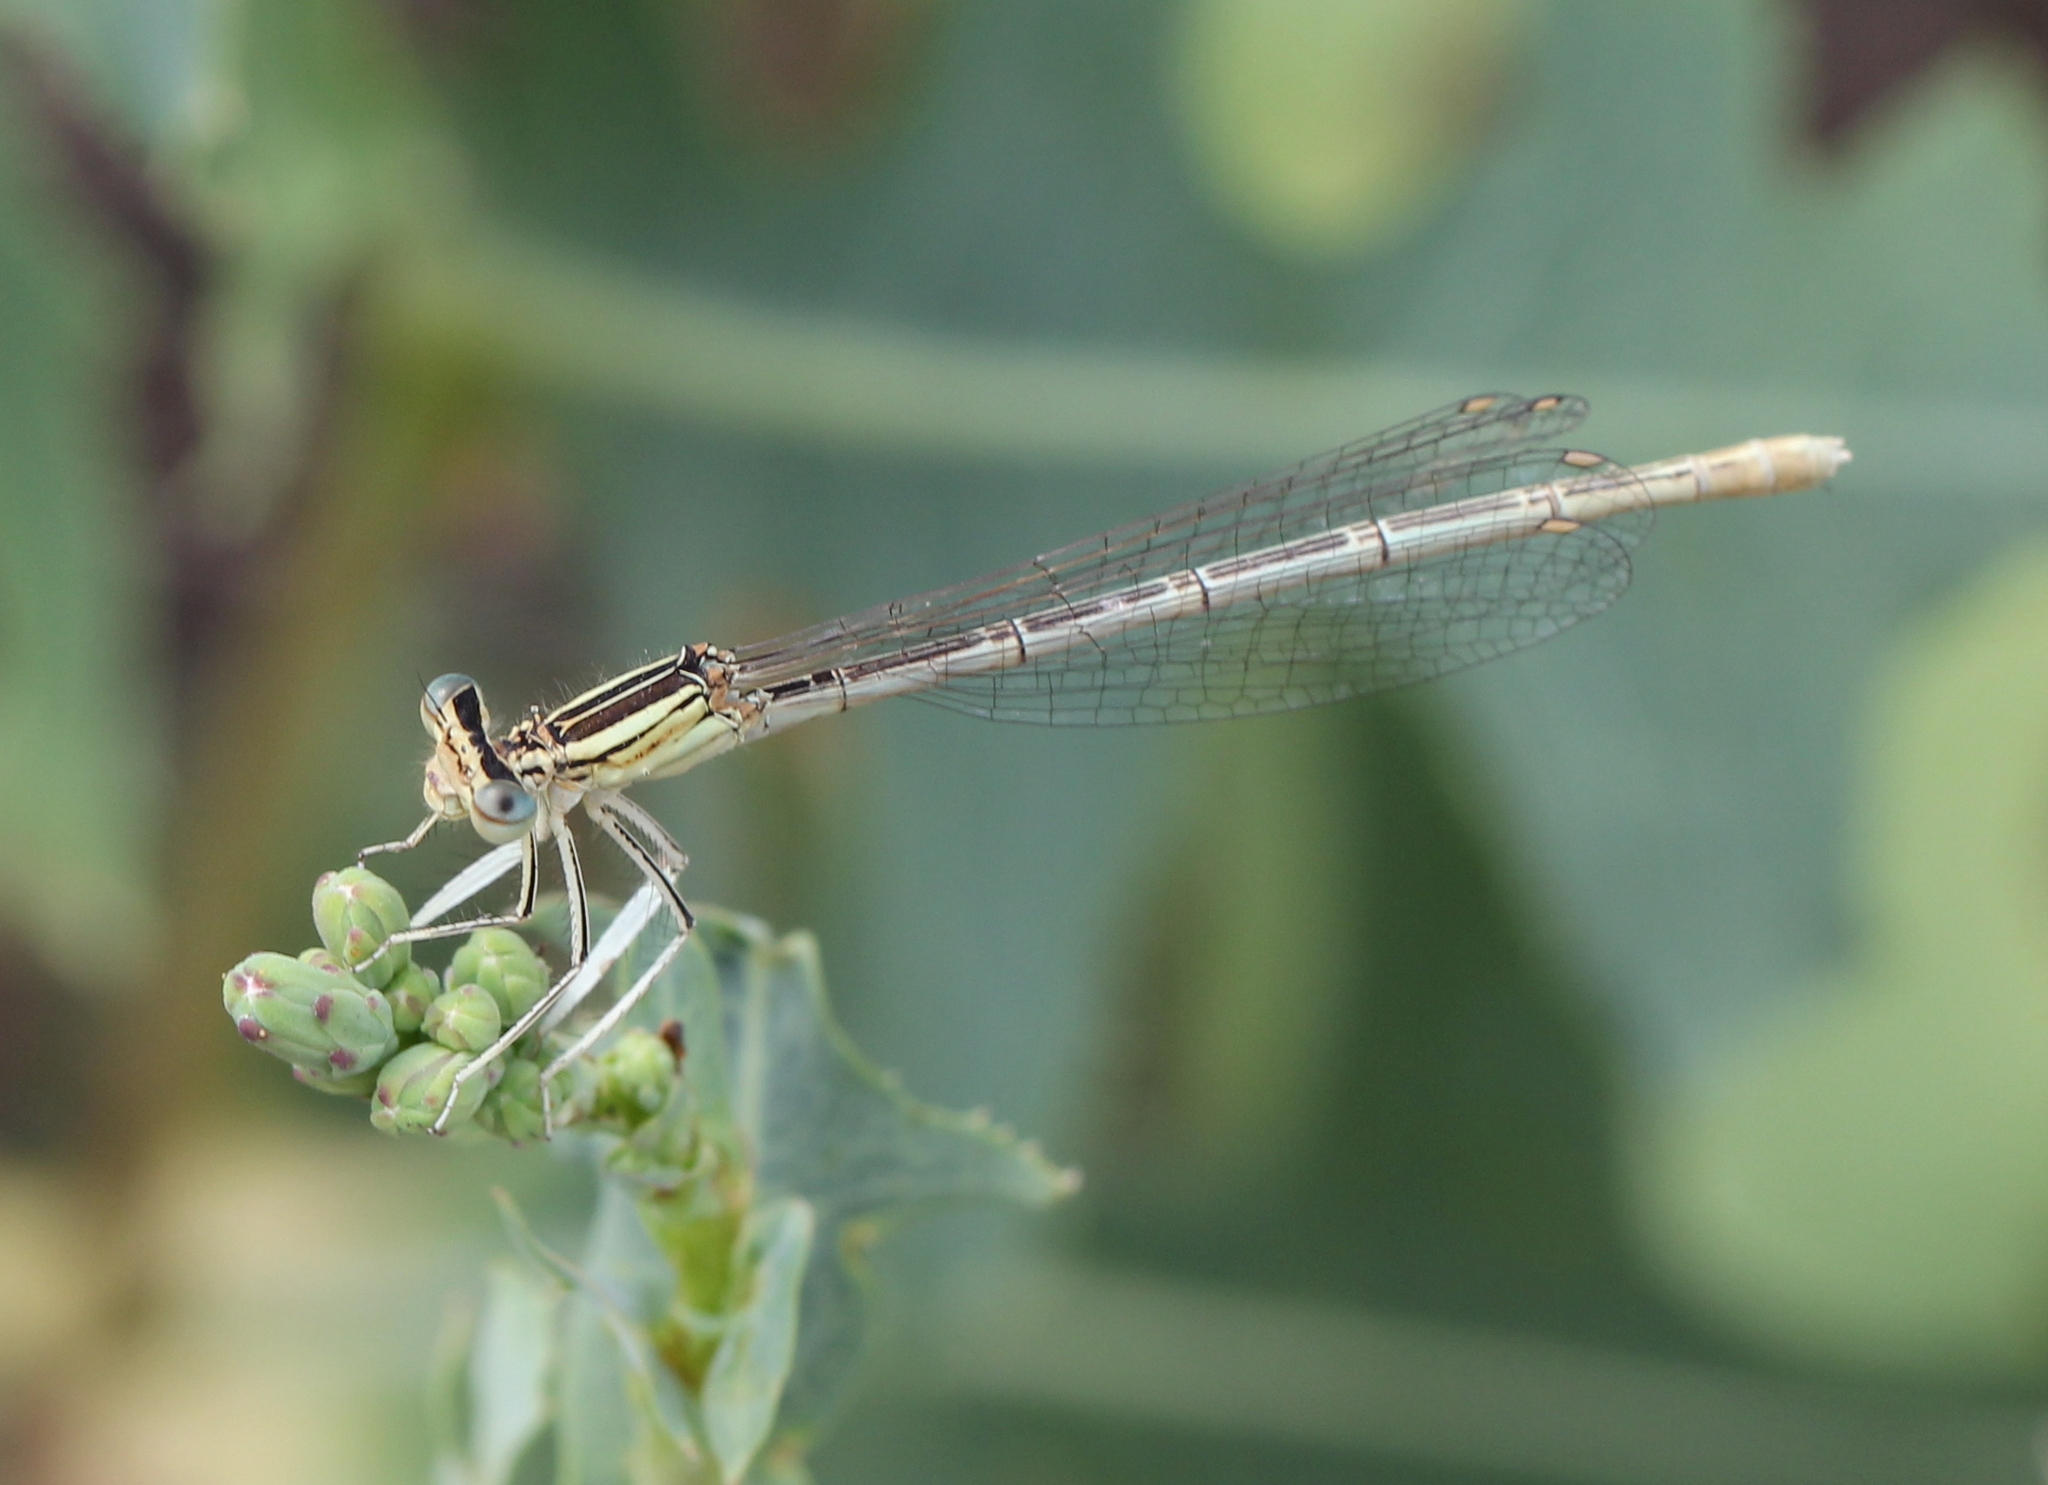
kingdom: Animalia
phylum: Arthropoda
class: Insecta
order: Odonata
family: Platycnemididae
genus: Platycnemis
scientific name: Platycnemis pennipes
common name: White-legged damselfly
